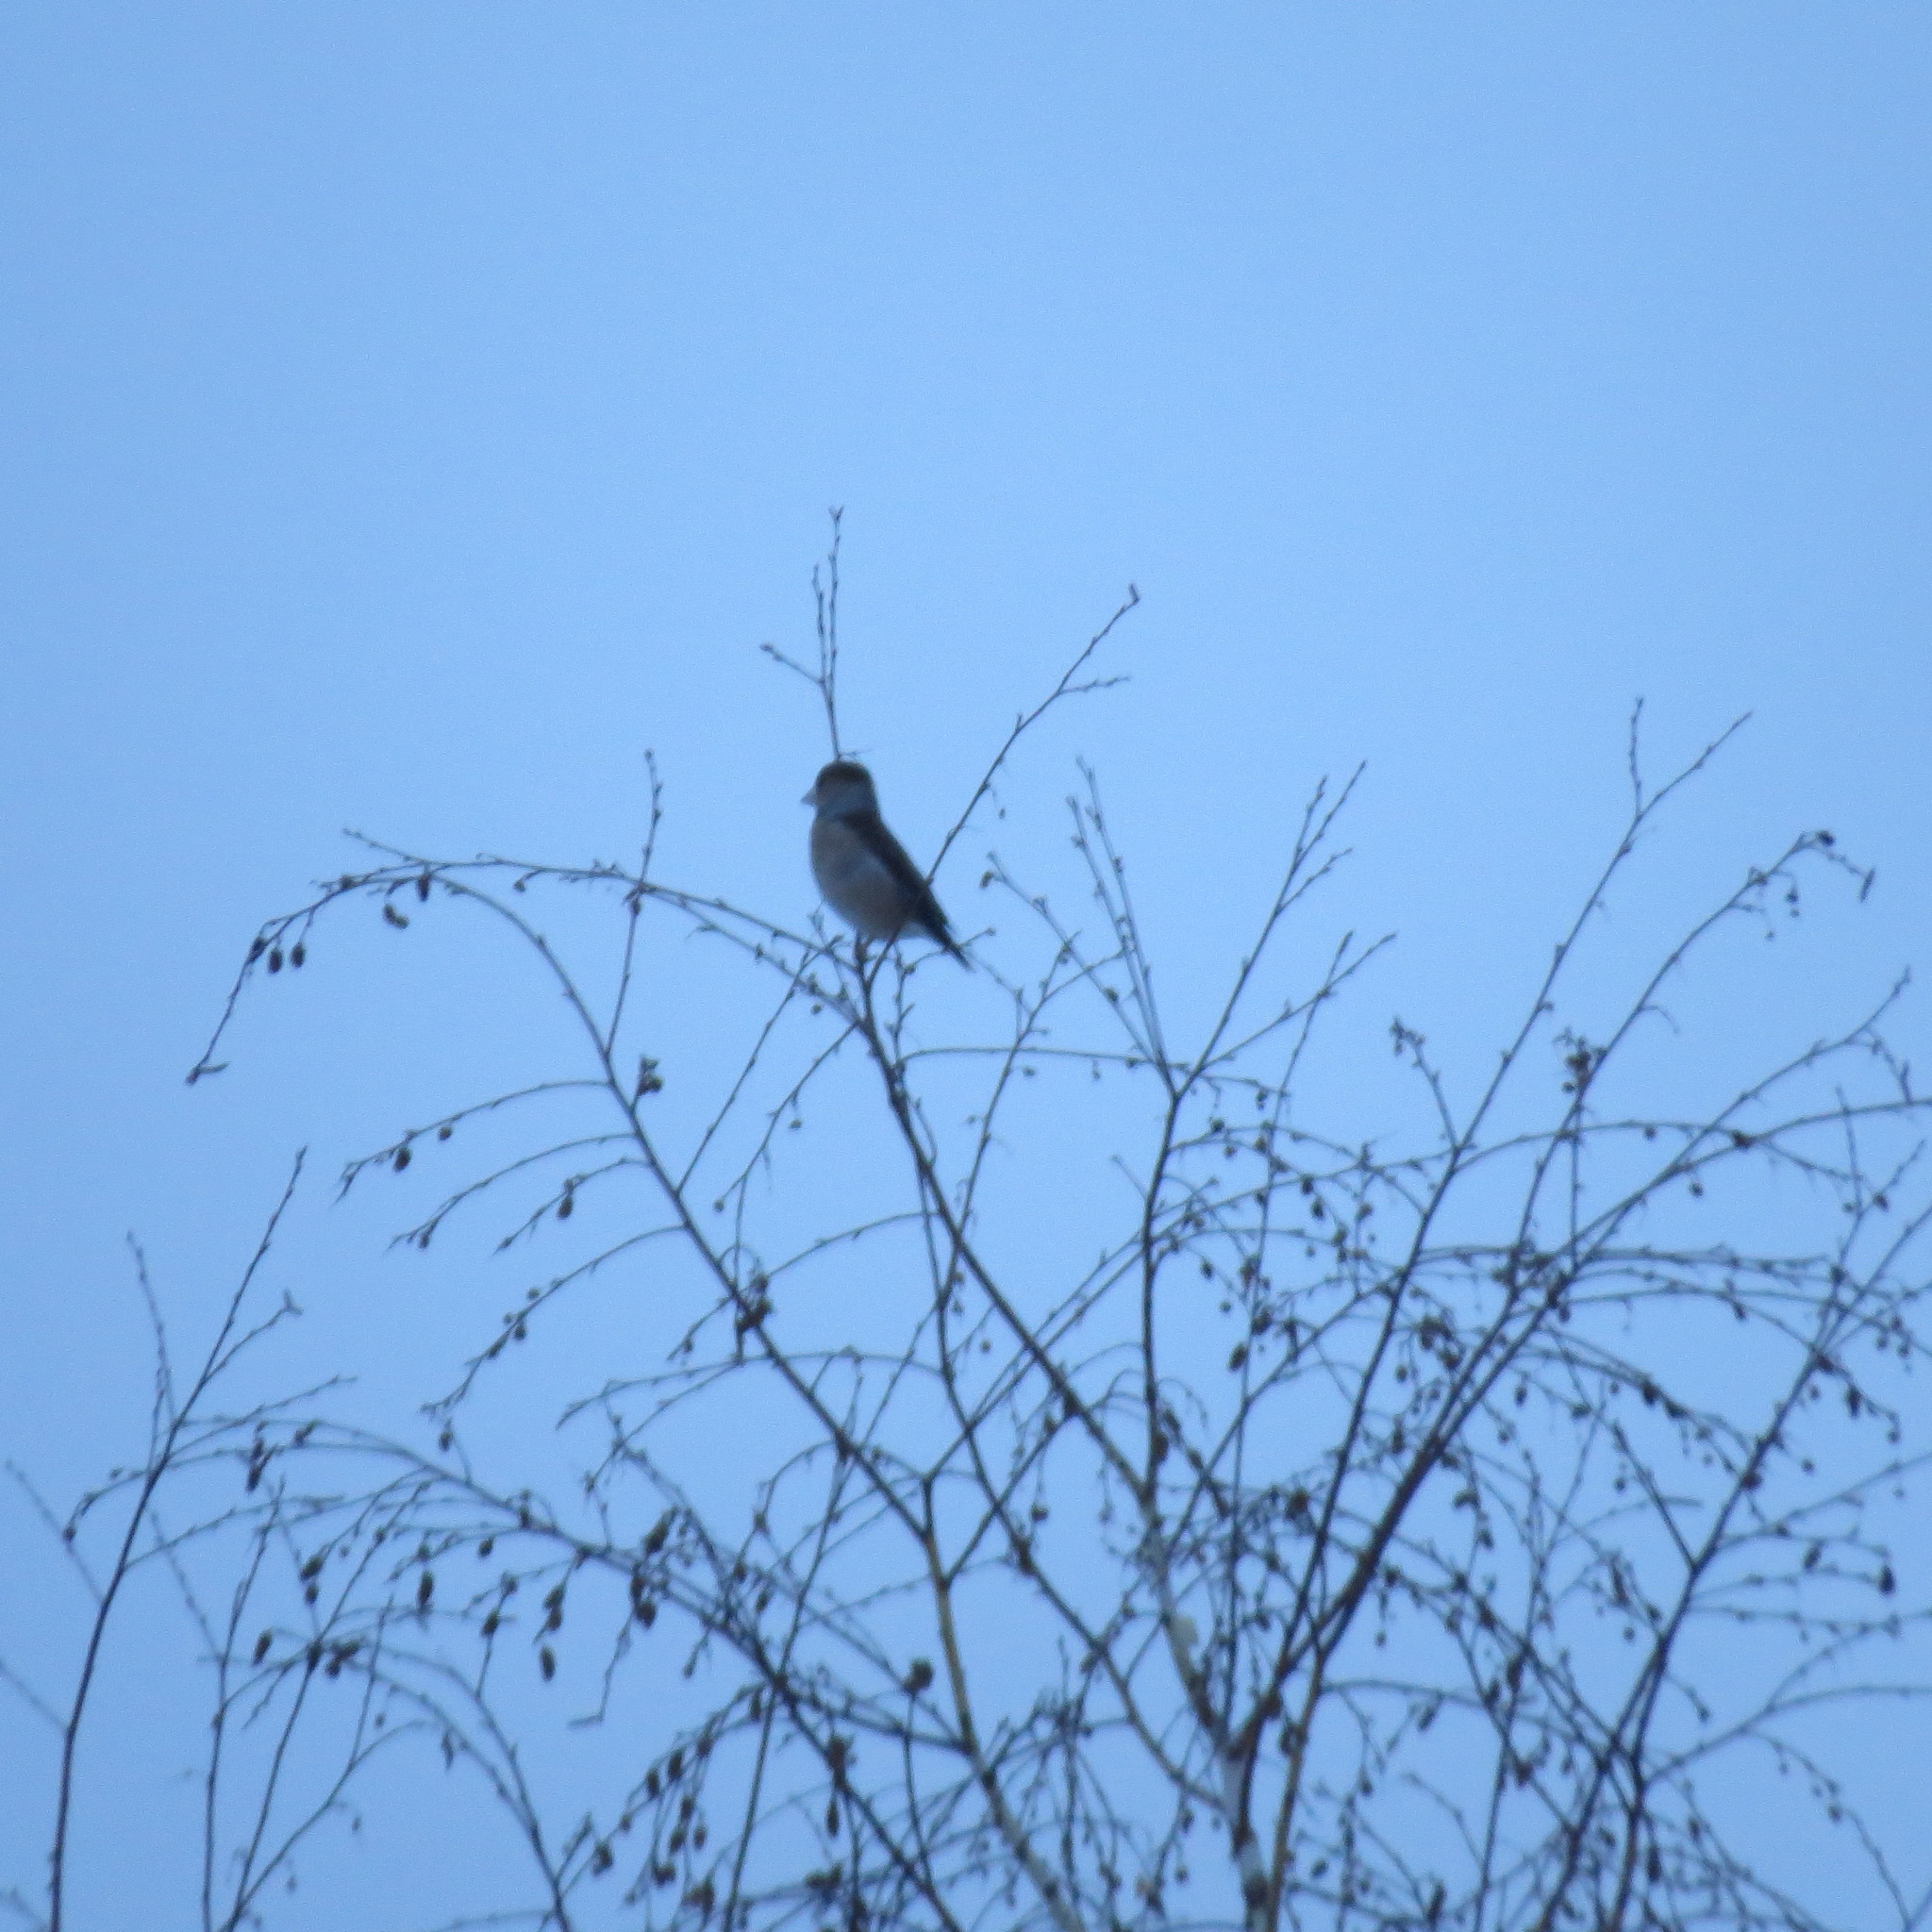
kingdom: Animalia
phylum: Chordata
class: Aves
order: Passeriformes
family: Fringillidae
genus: Coccothraustes
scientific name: Coccothraustes coccothraustes
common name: Hawfinch
